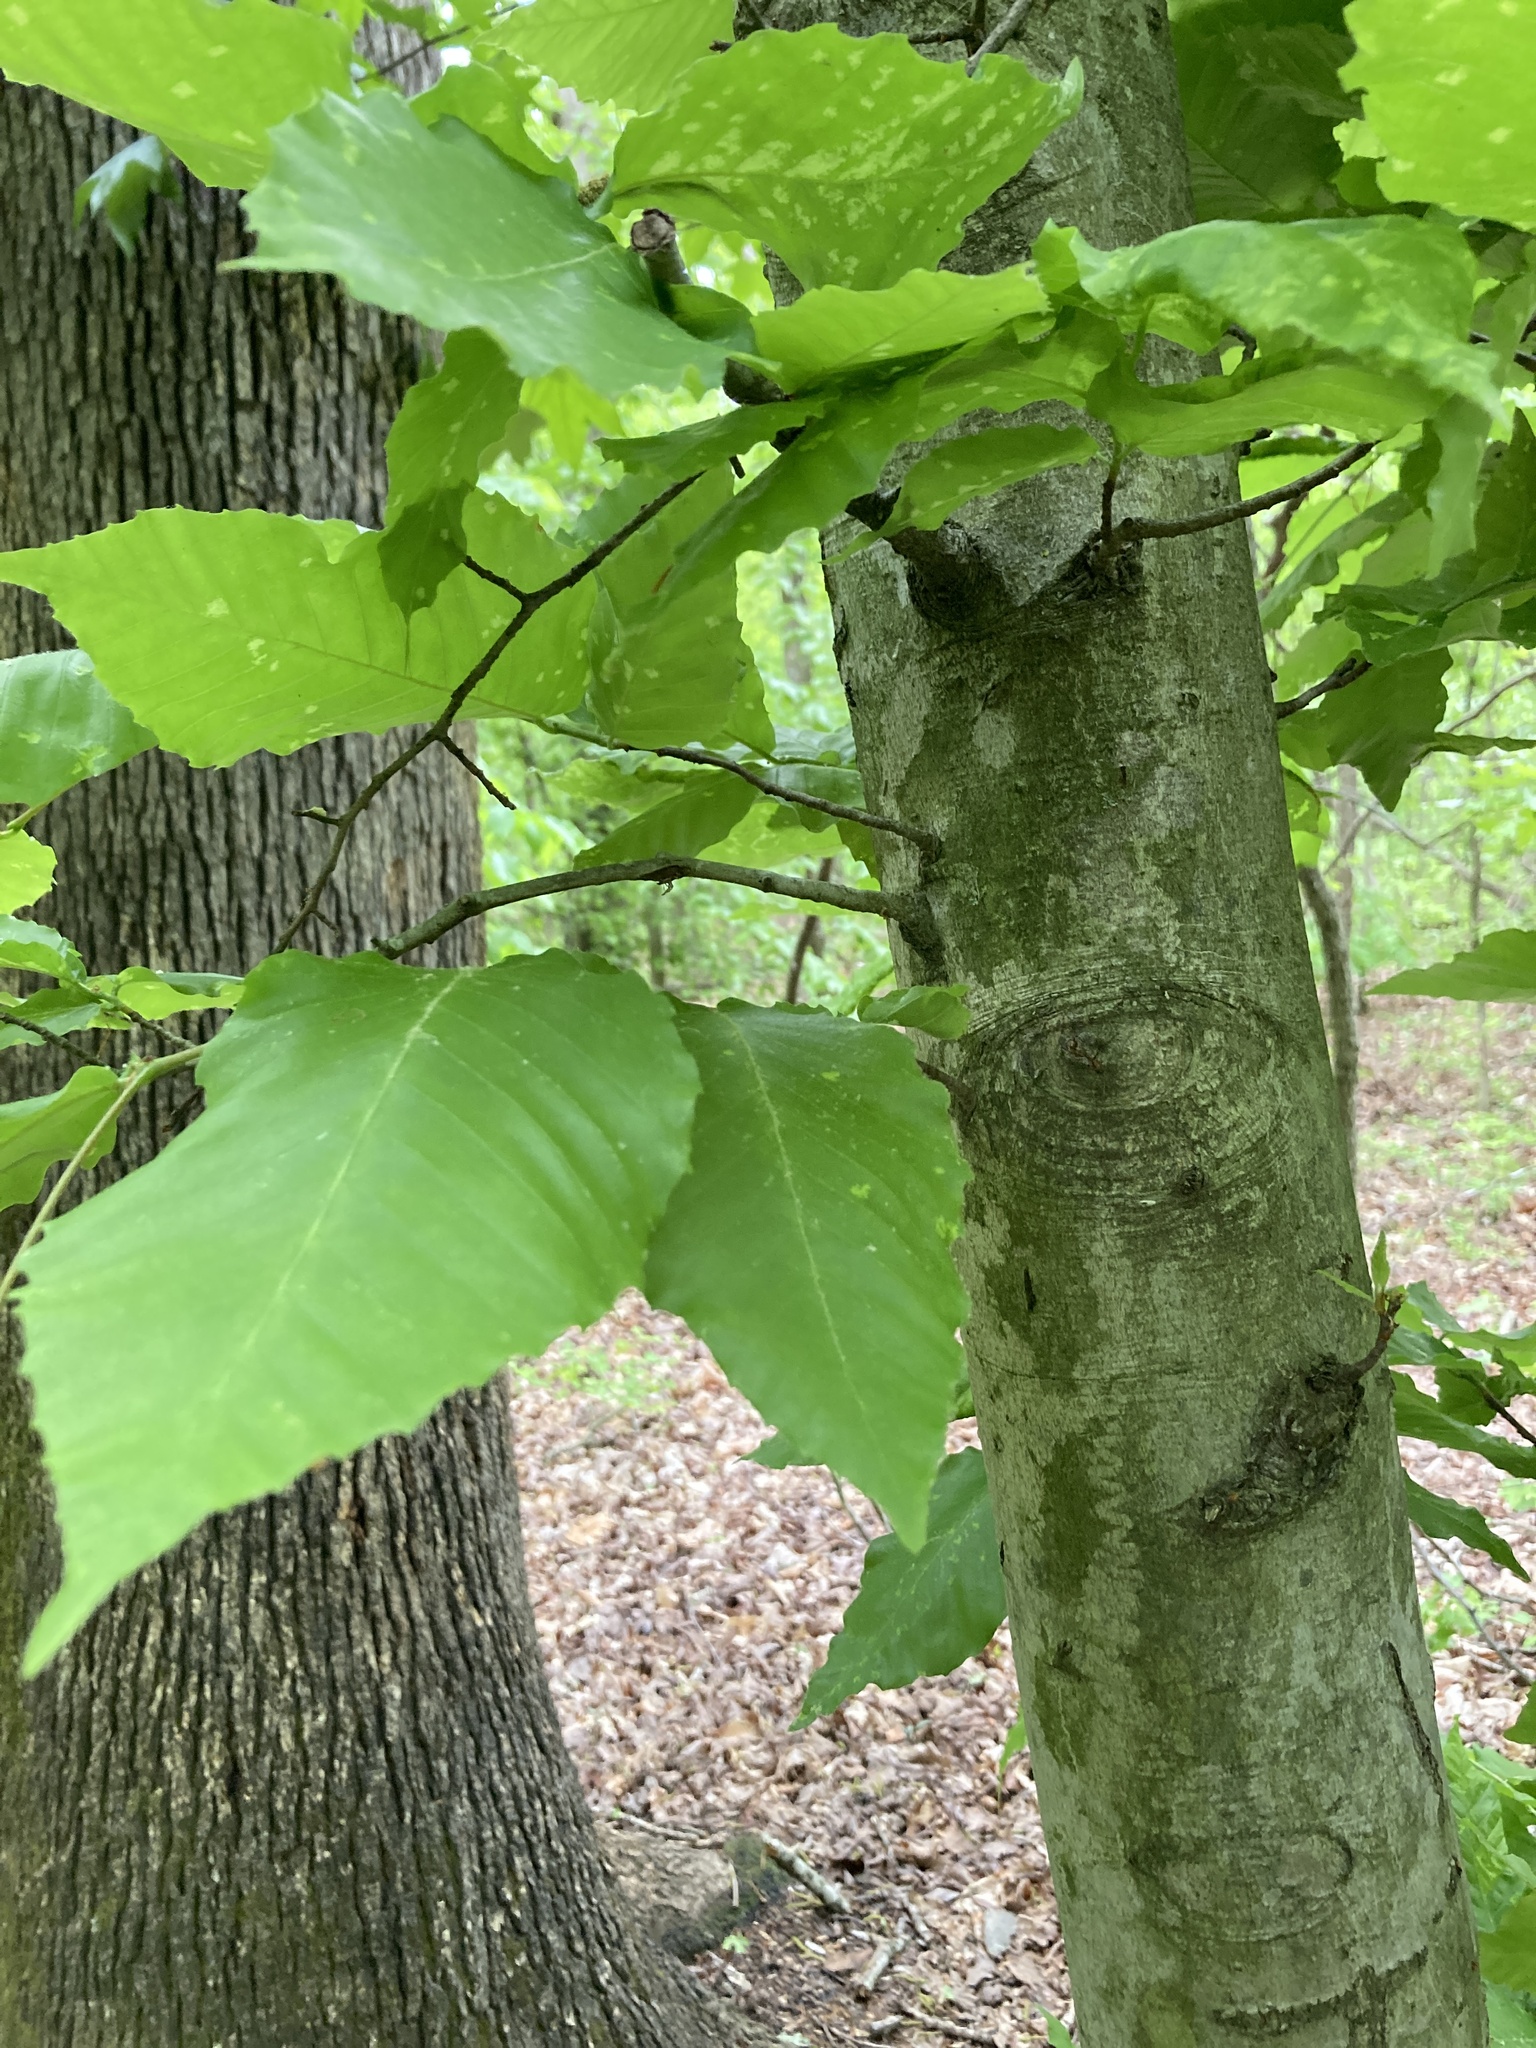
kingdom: Plantae
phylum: Tracheophyta
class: Magnoliopsida
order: Fagales
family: Fagaceae
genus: Fagus
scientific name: Fagus grandifolia
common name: American beech
